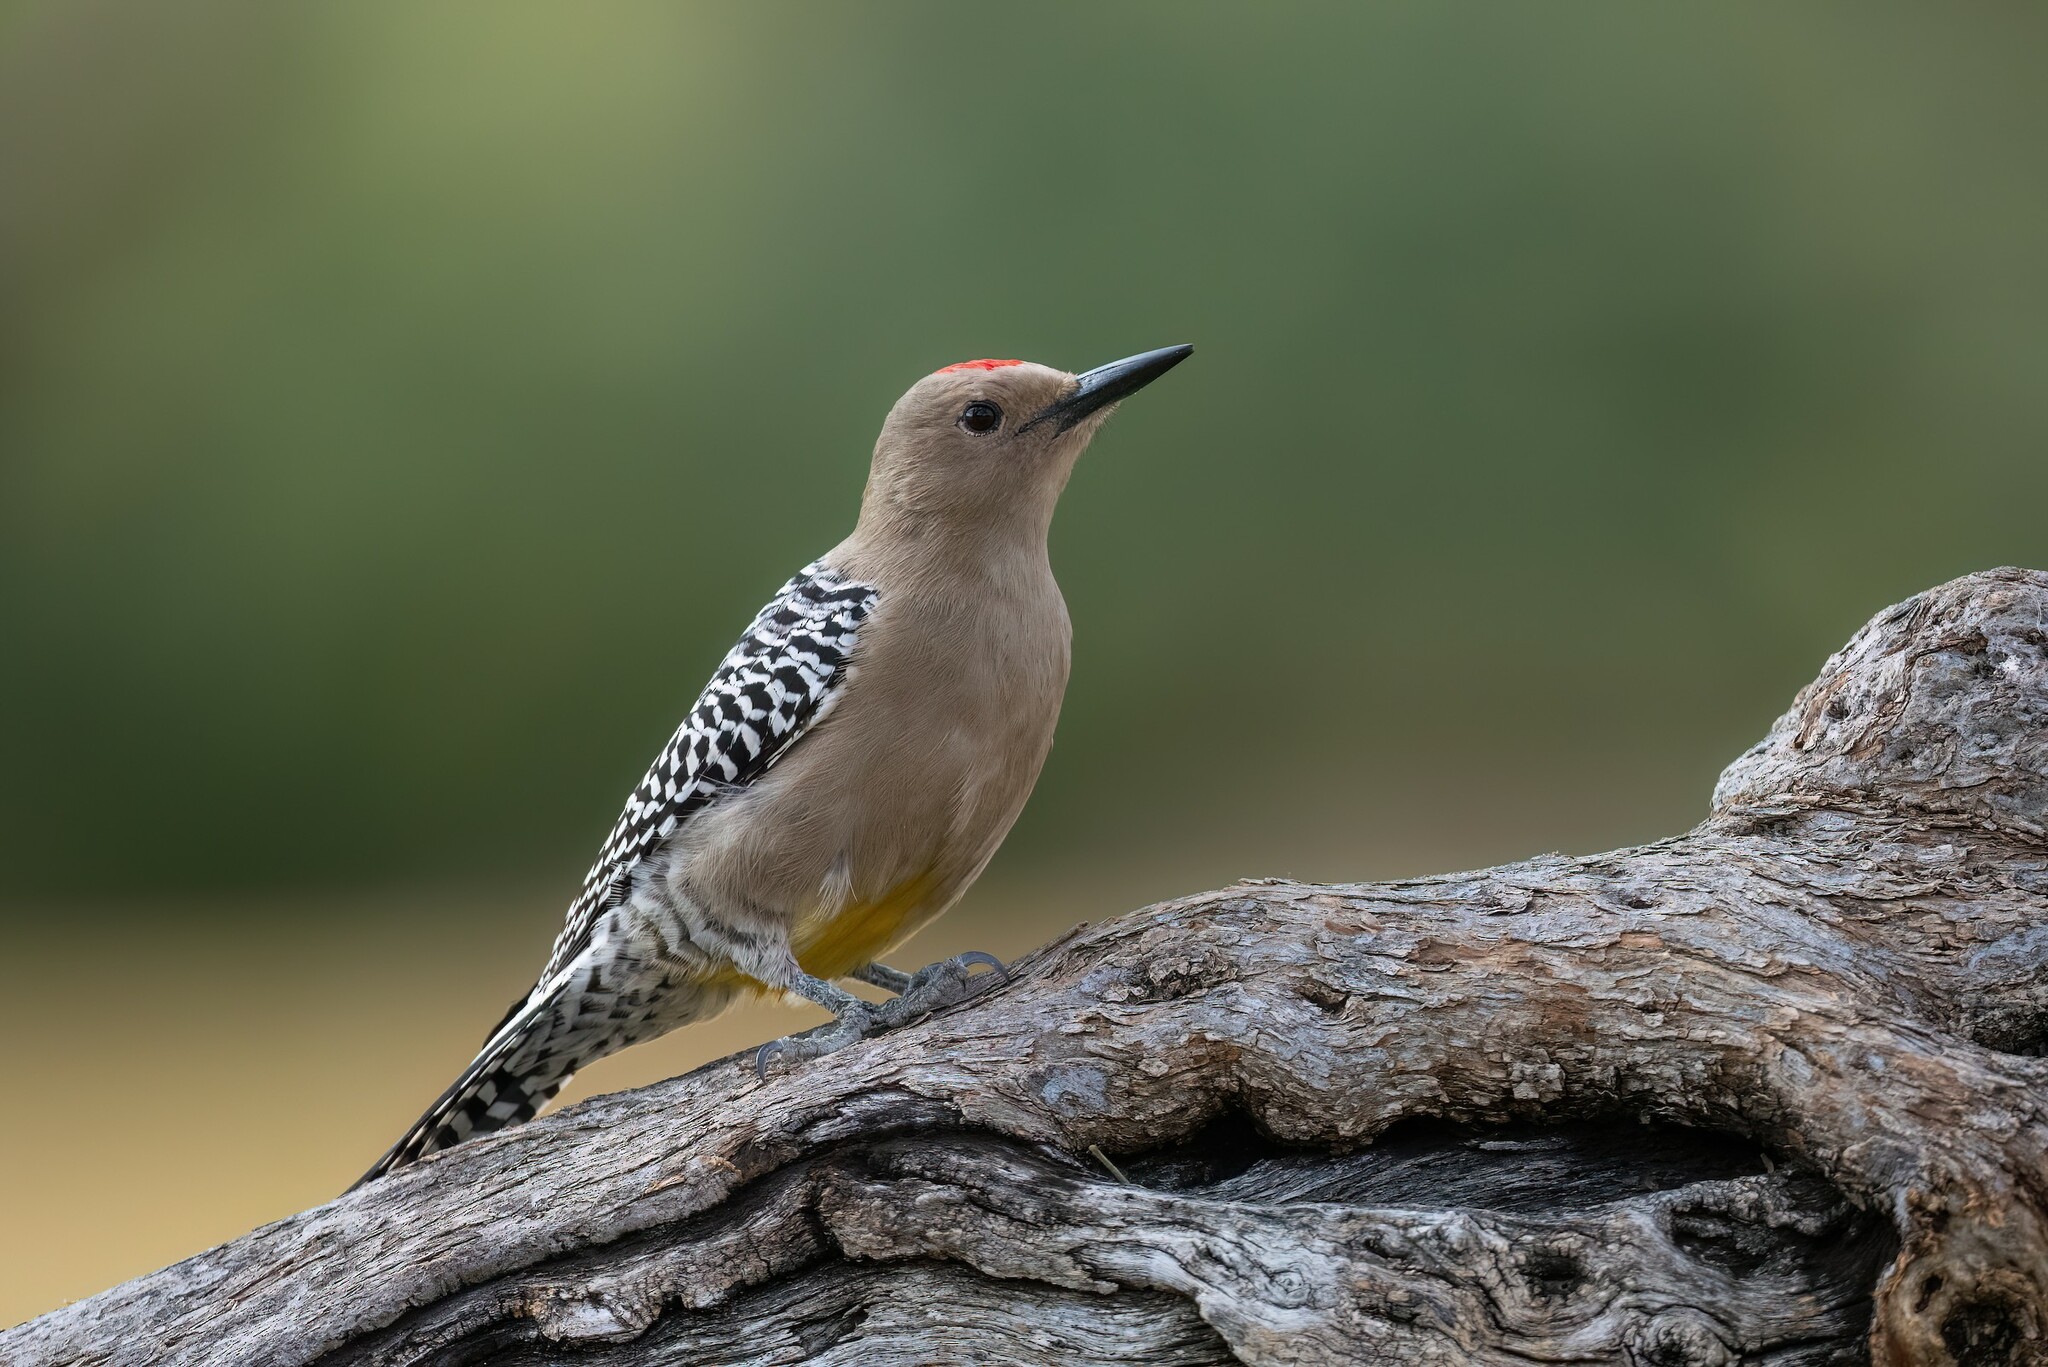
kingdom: Animalia
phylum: Chordata
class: Aves
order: Piciformes
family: Picidae
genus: Melanerpes
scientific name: Melanerpes uropygialis
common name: Gila woodpecker
